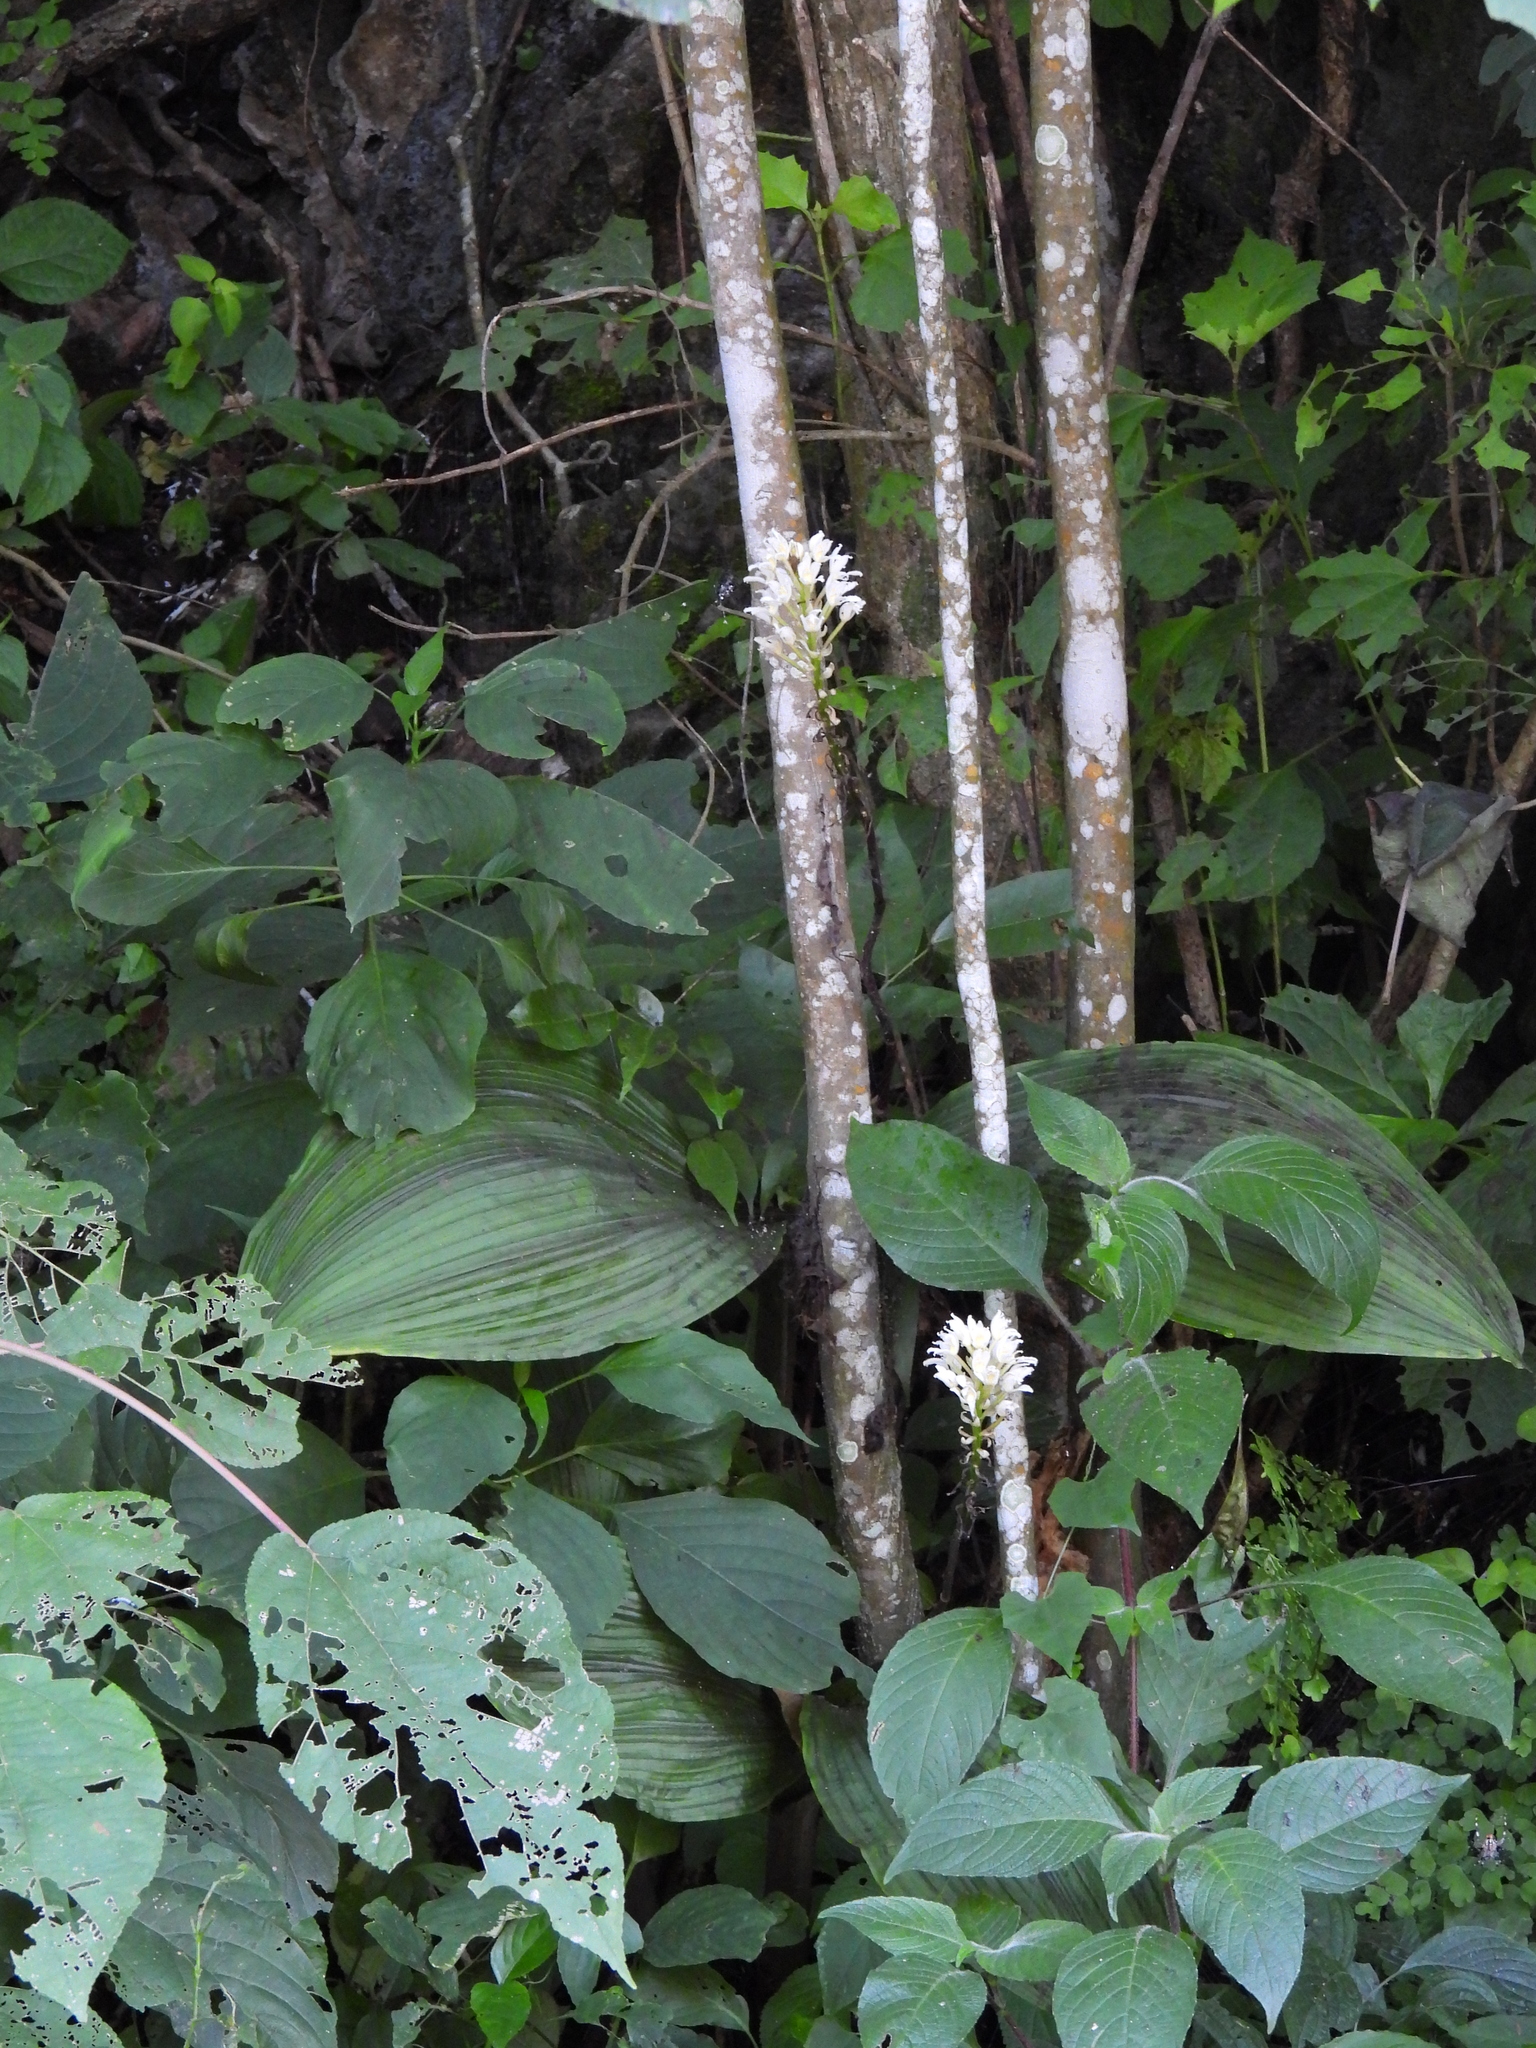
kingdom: Plantae
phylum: Tracheophyta
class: Liliopsida
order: Asparagales
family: Orchidaceae
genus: Govenia
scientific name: Govenia alba
